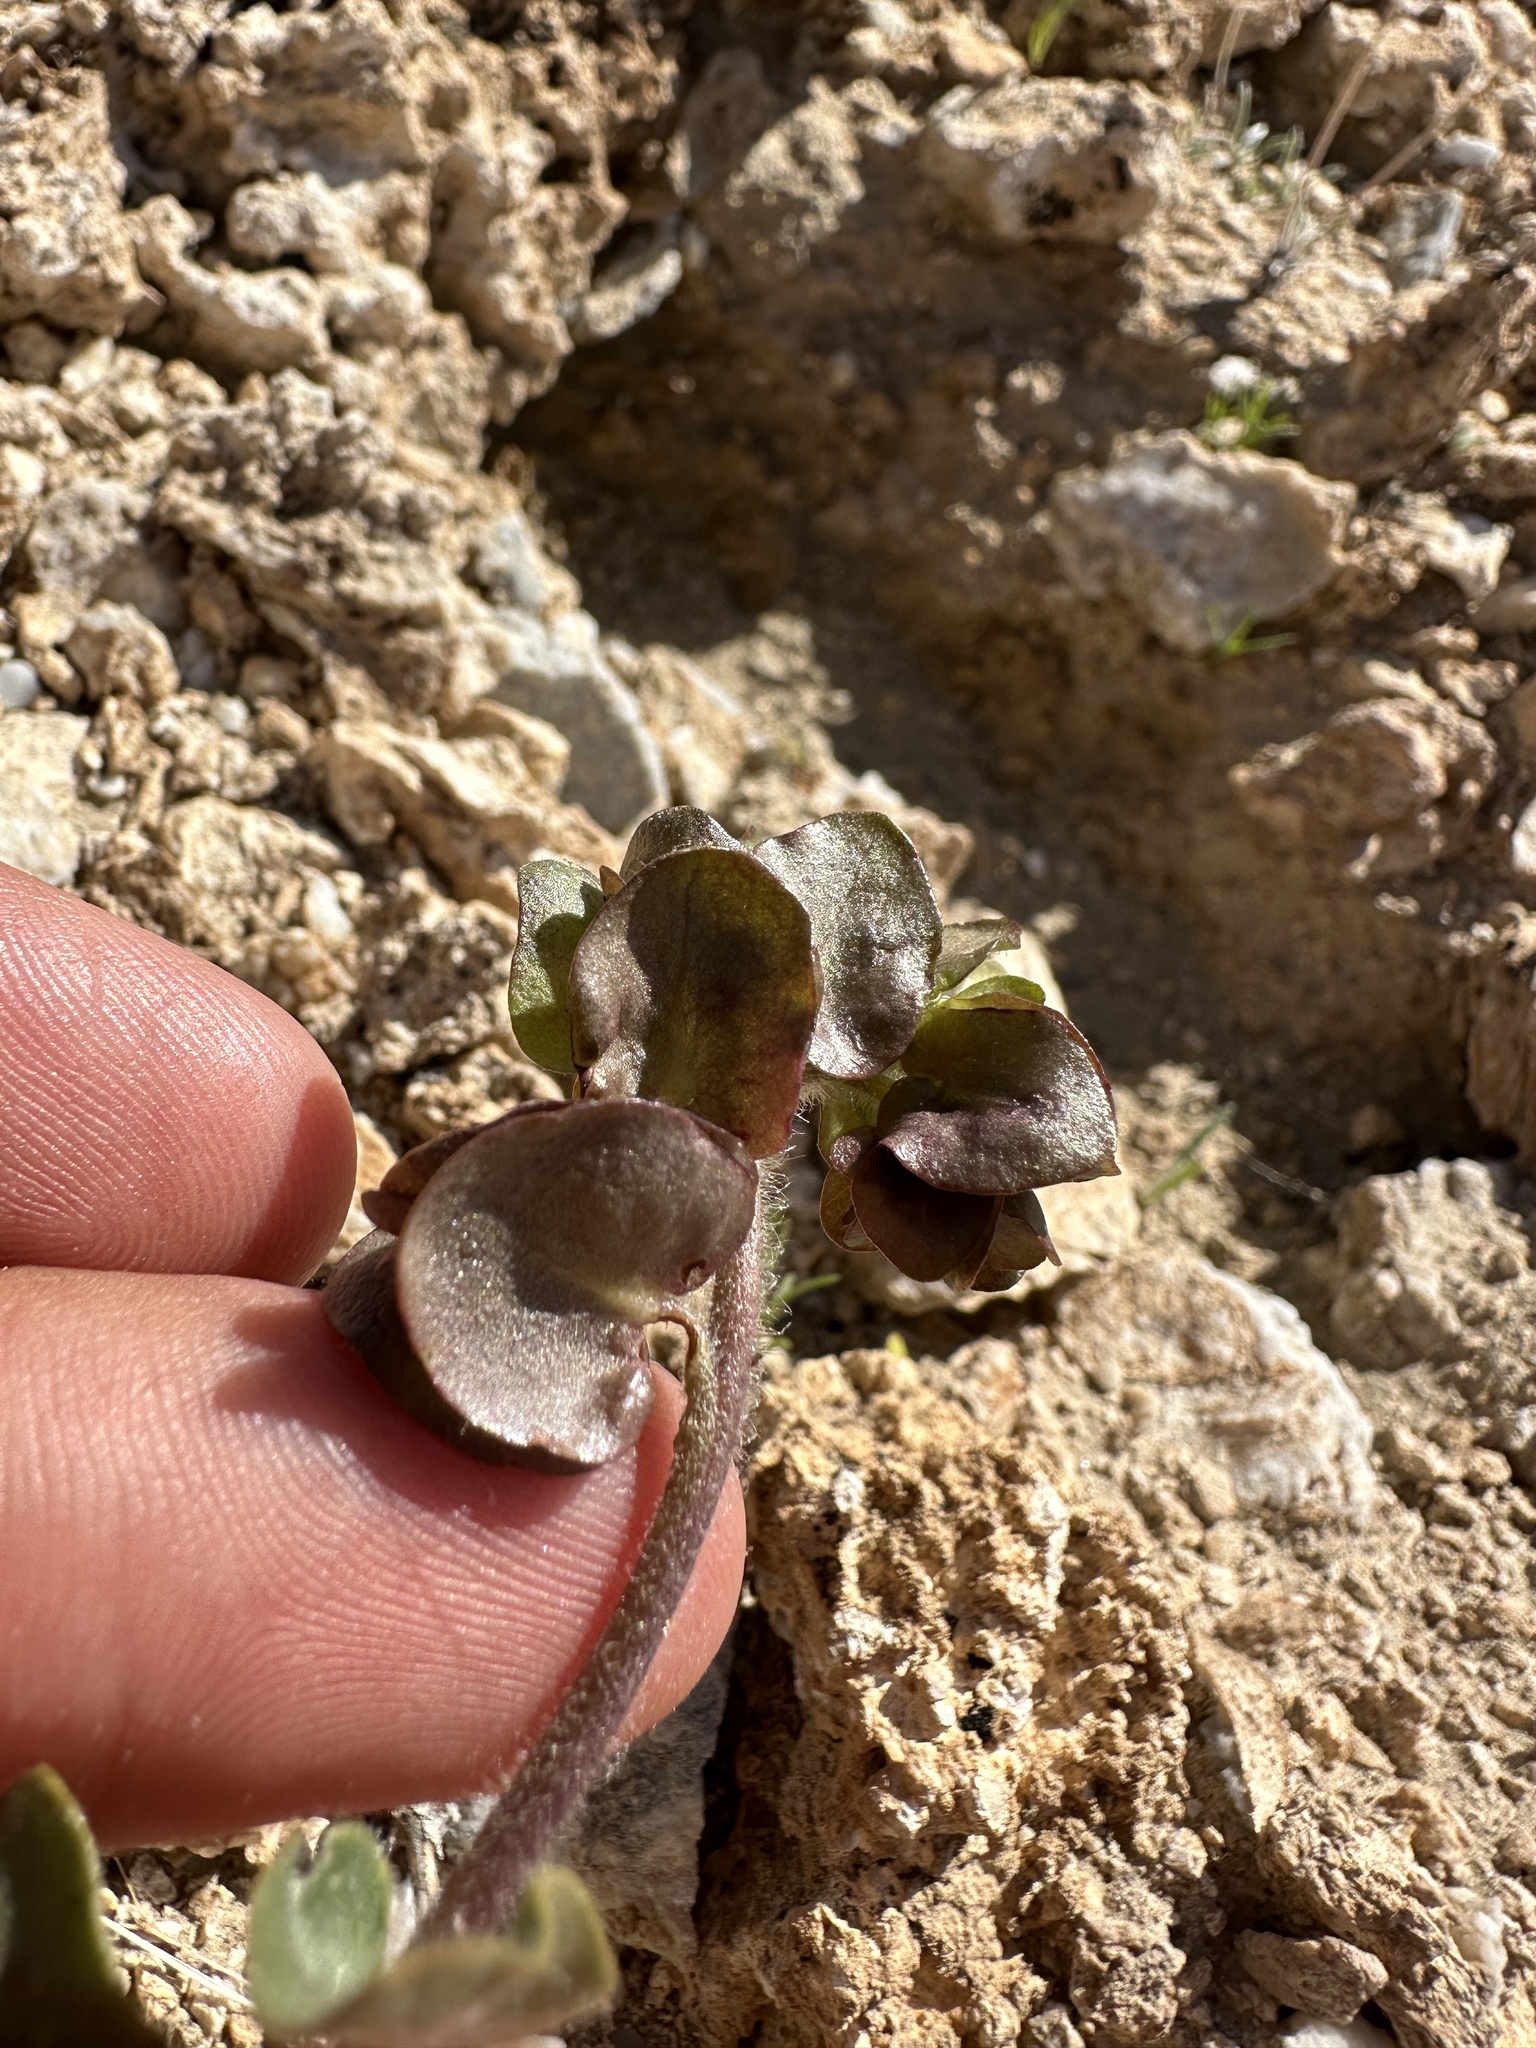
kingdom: Plantae
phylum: Tracheophyta
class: Magnoliopsida
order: Boraginales
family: Hydrophyllaceae
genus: Tricardia
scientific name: Tricardia watsonii
